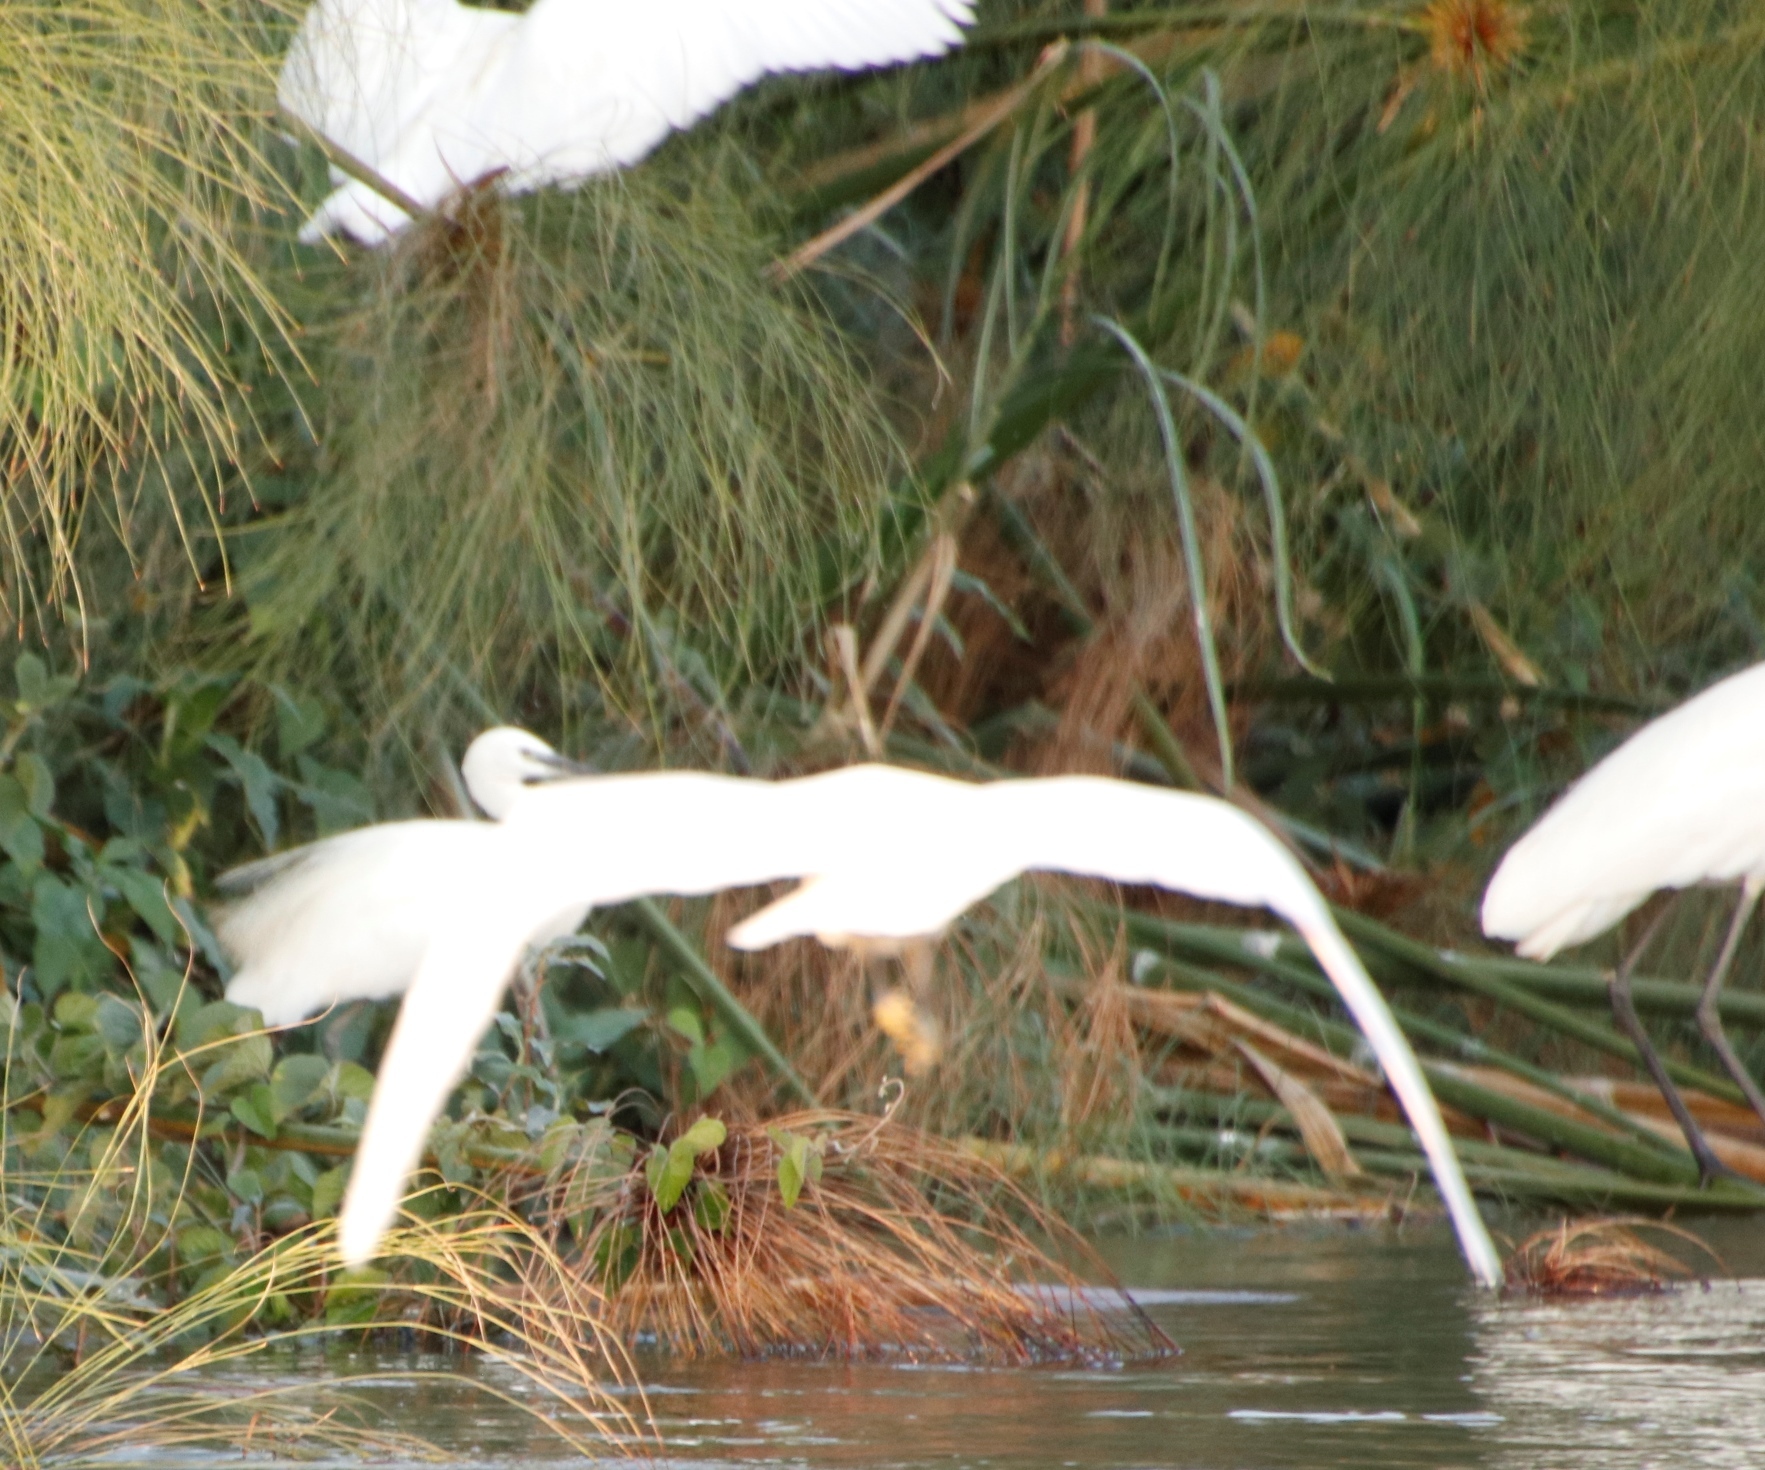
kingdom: Animalia
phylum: Chordata
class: Aves
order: Pelecaniformes
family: Ardeidae
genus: Egretta
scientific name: Egretta garzetta
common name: Little egret
